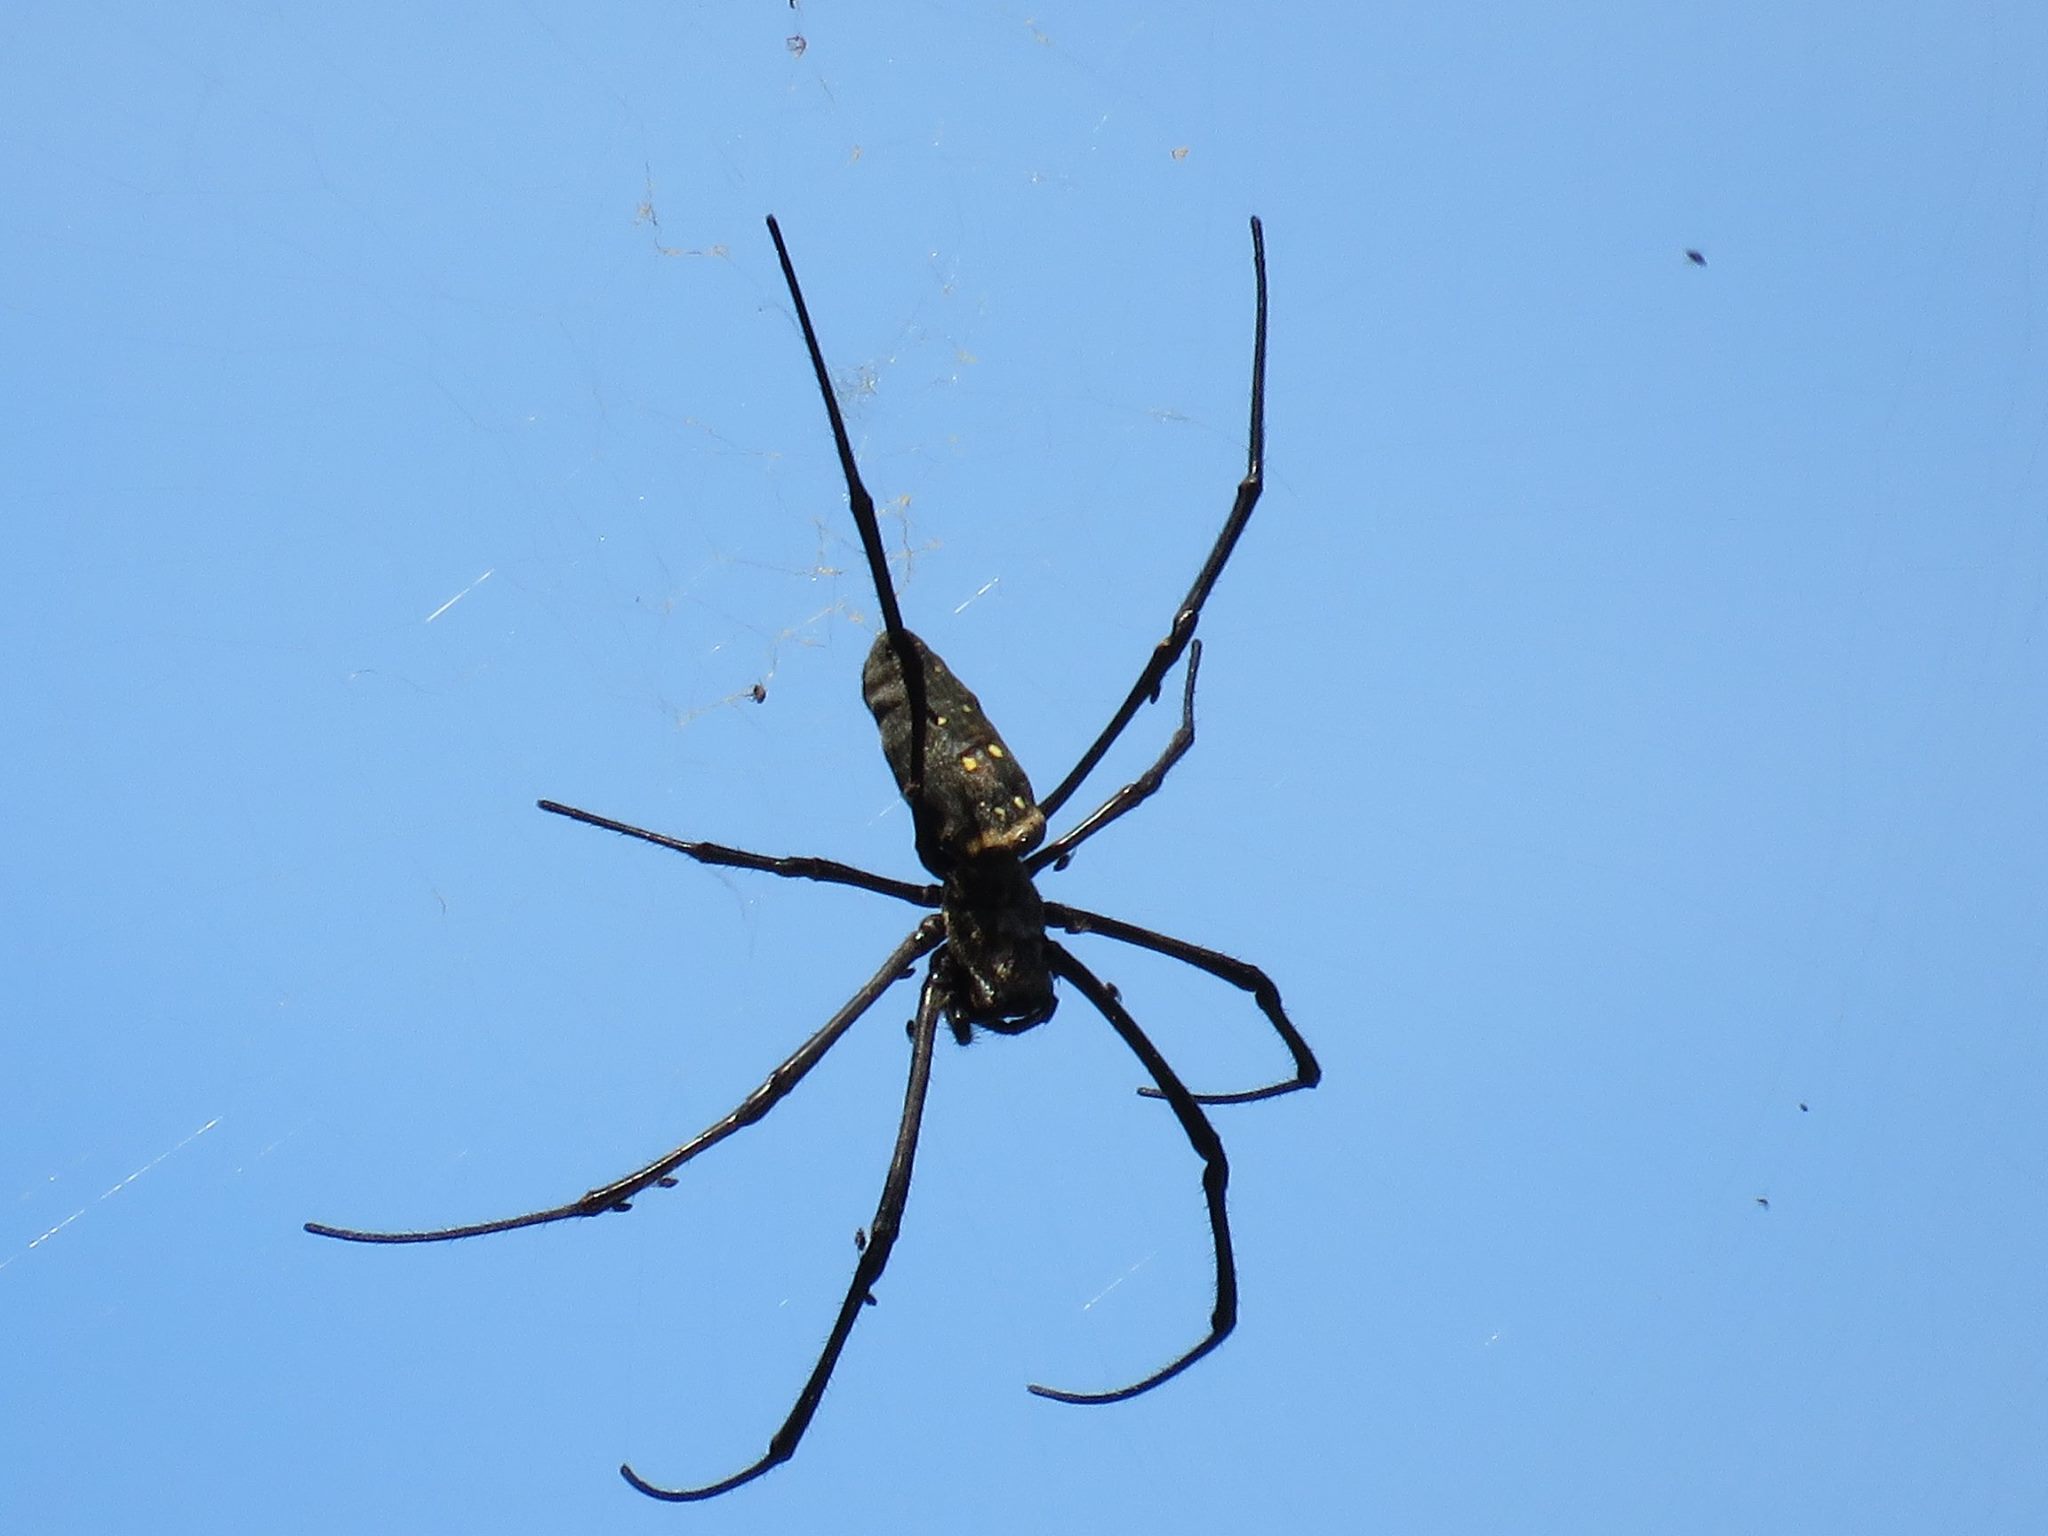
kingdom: Animalia
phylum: Arthropoda
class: Arachnida
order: Araneae
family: Araneidae
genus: Nephila
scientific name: Nephila pilipes
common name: Giant golden orb weaver
